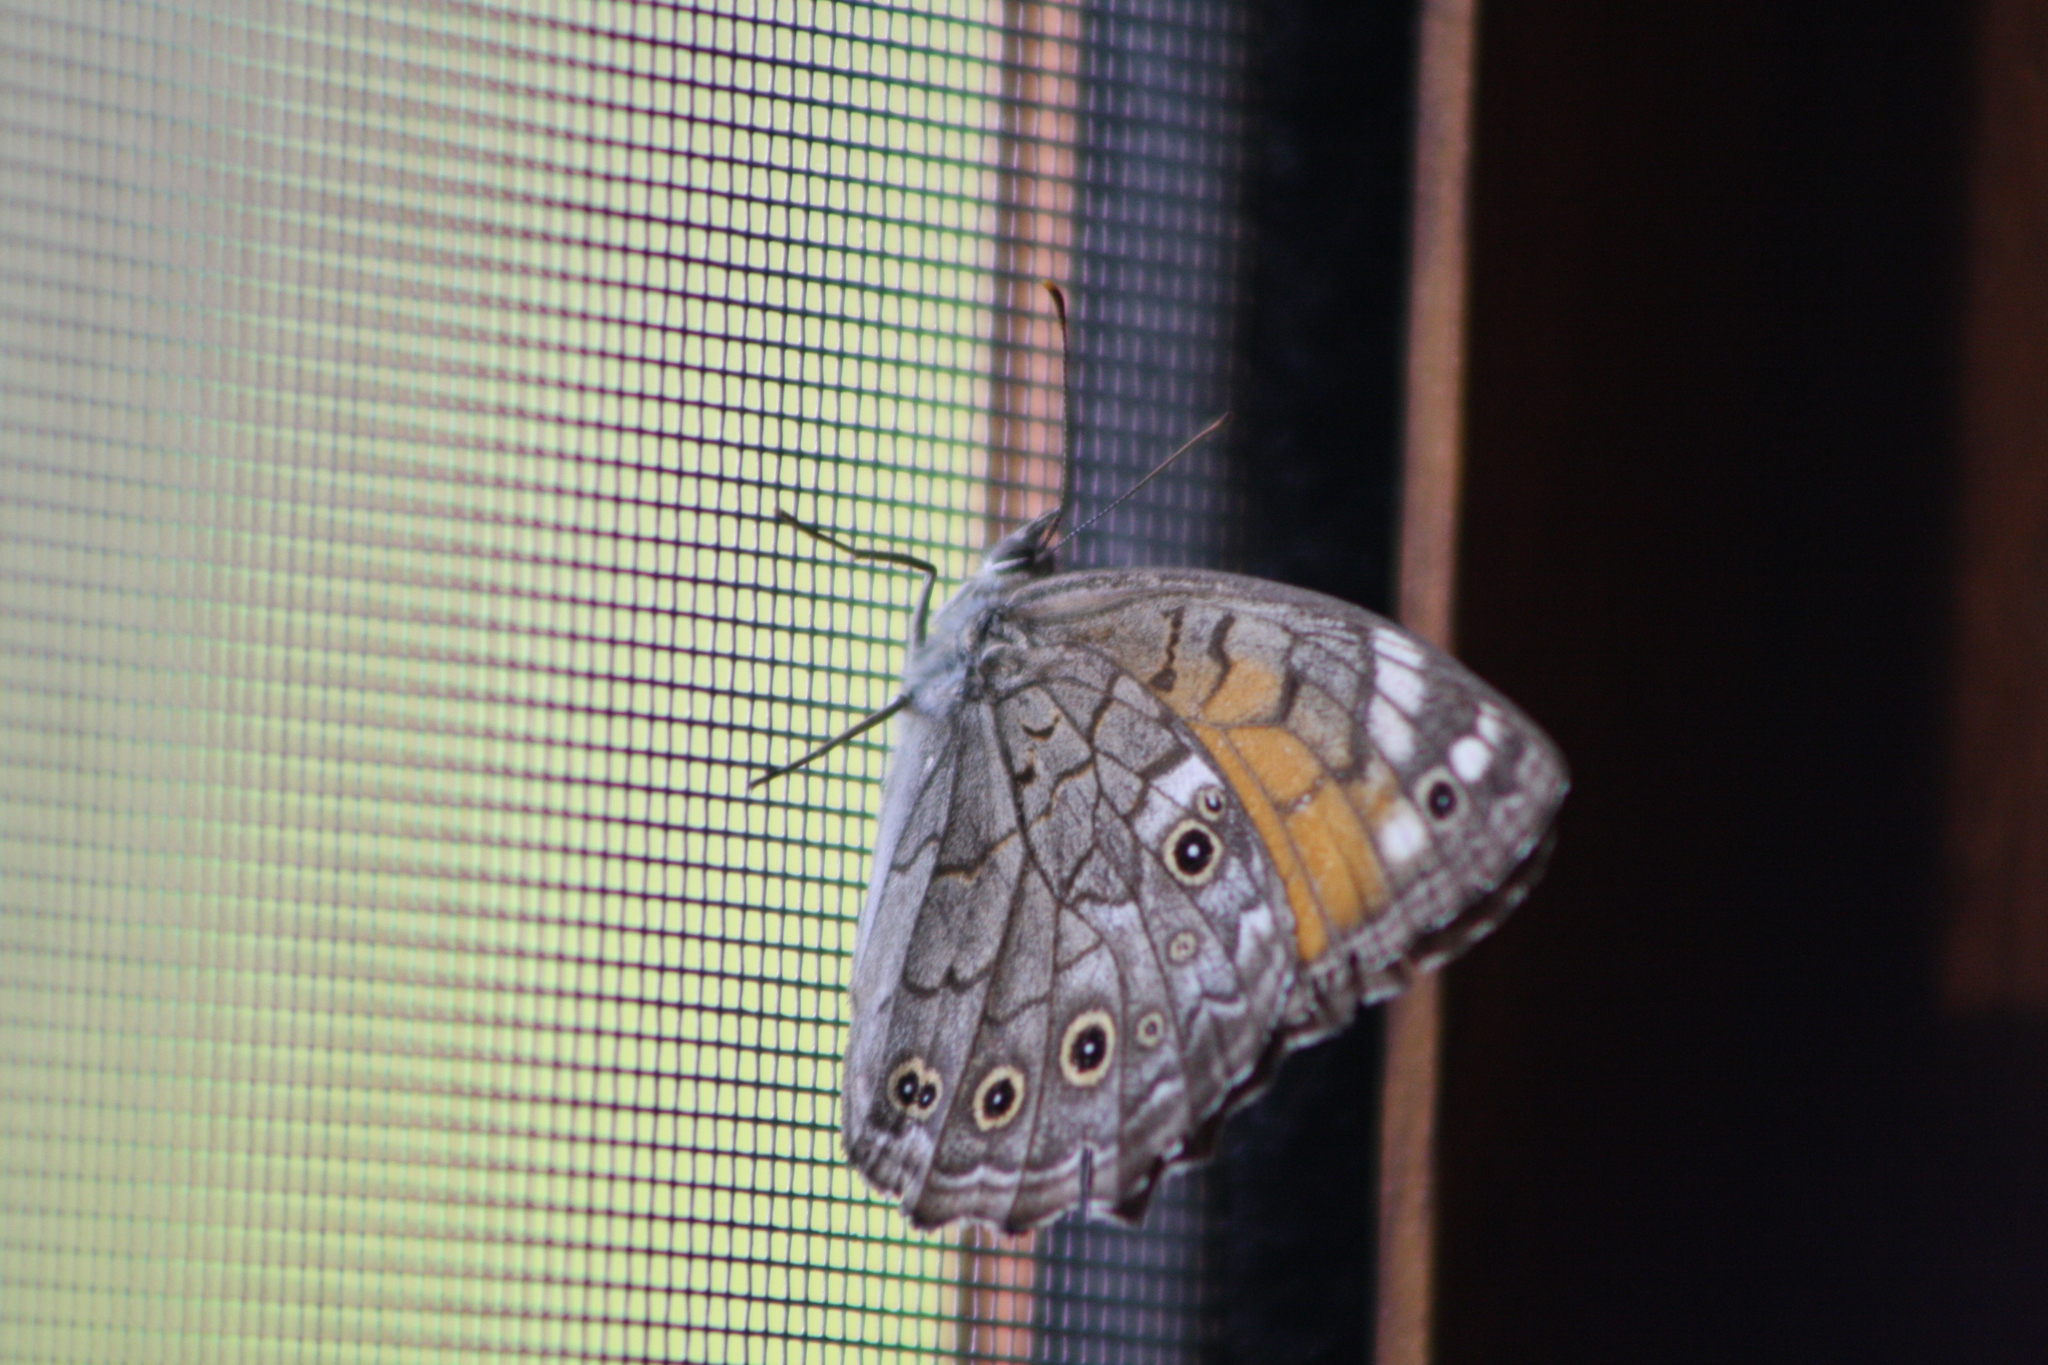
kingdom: Animalia
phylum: Arthropoda
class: Insecta
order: Lepidoptera
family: Nymphalidae
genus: Kirinia
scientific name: Kirinia roxelana
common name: Lattice brown
